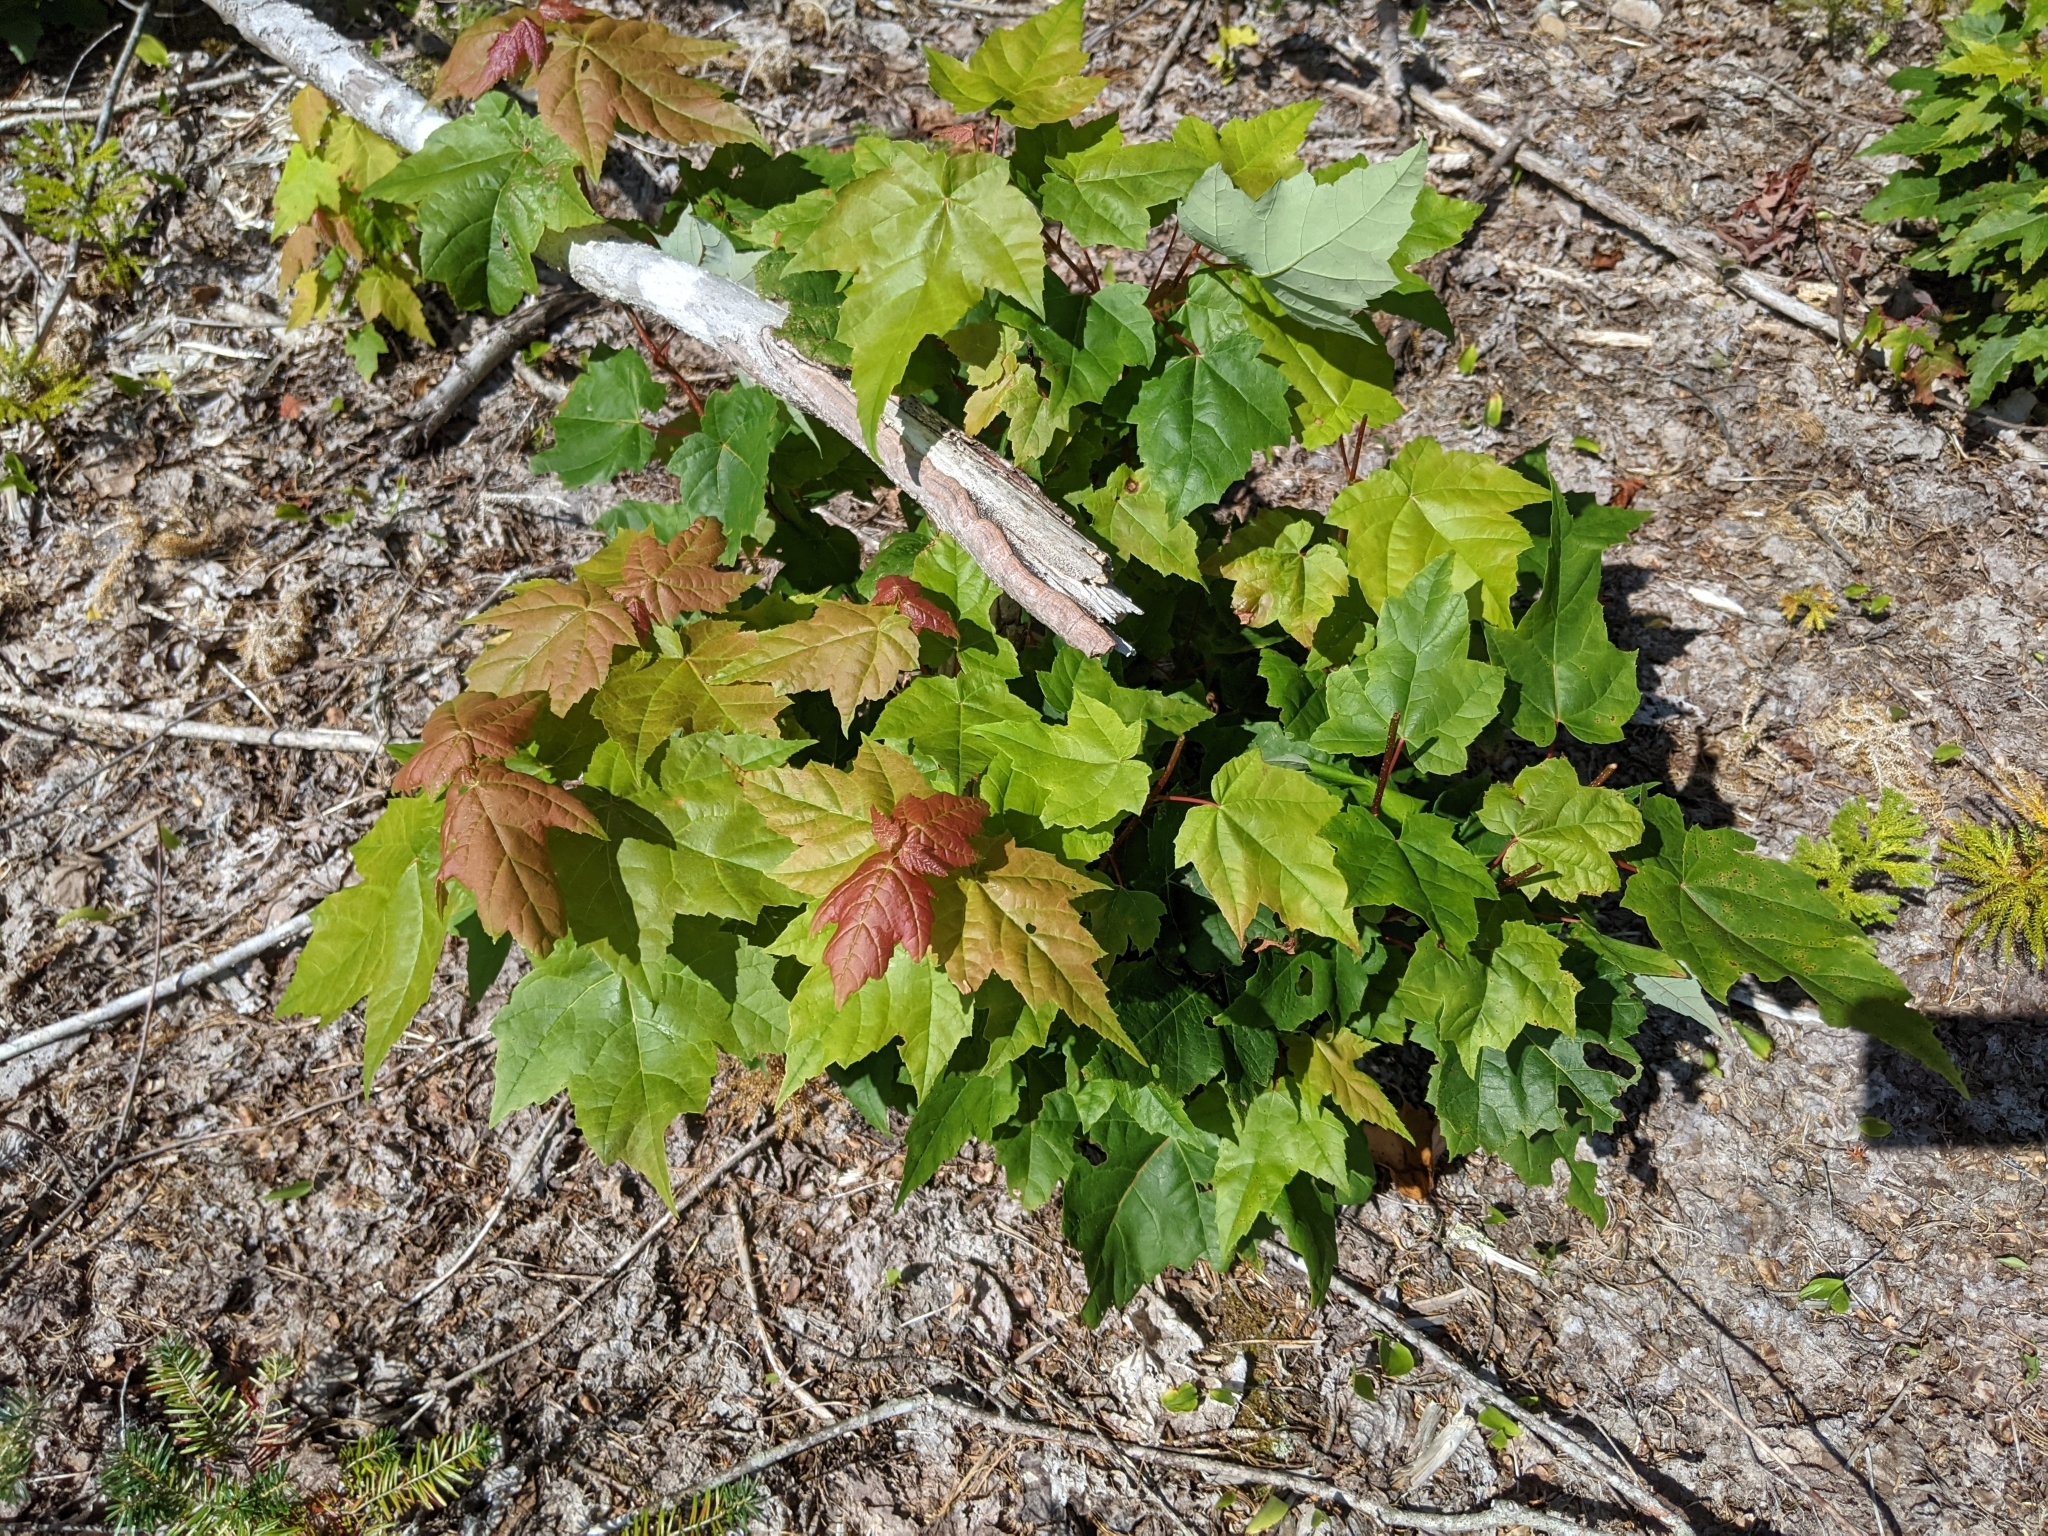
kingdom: Plantae
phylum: Tracheophyta
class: Magnoliopsida
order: Sapindales
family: Sapindaceae
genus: Acer
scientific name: Acer rubrum
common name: Red maple
